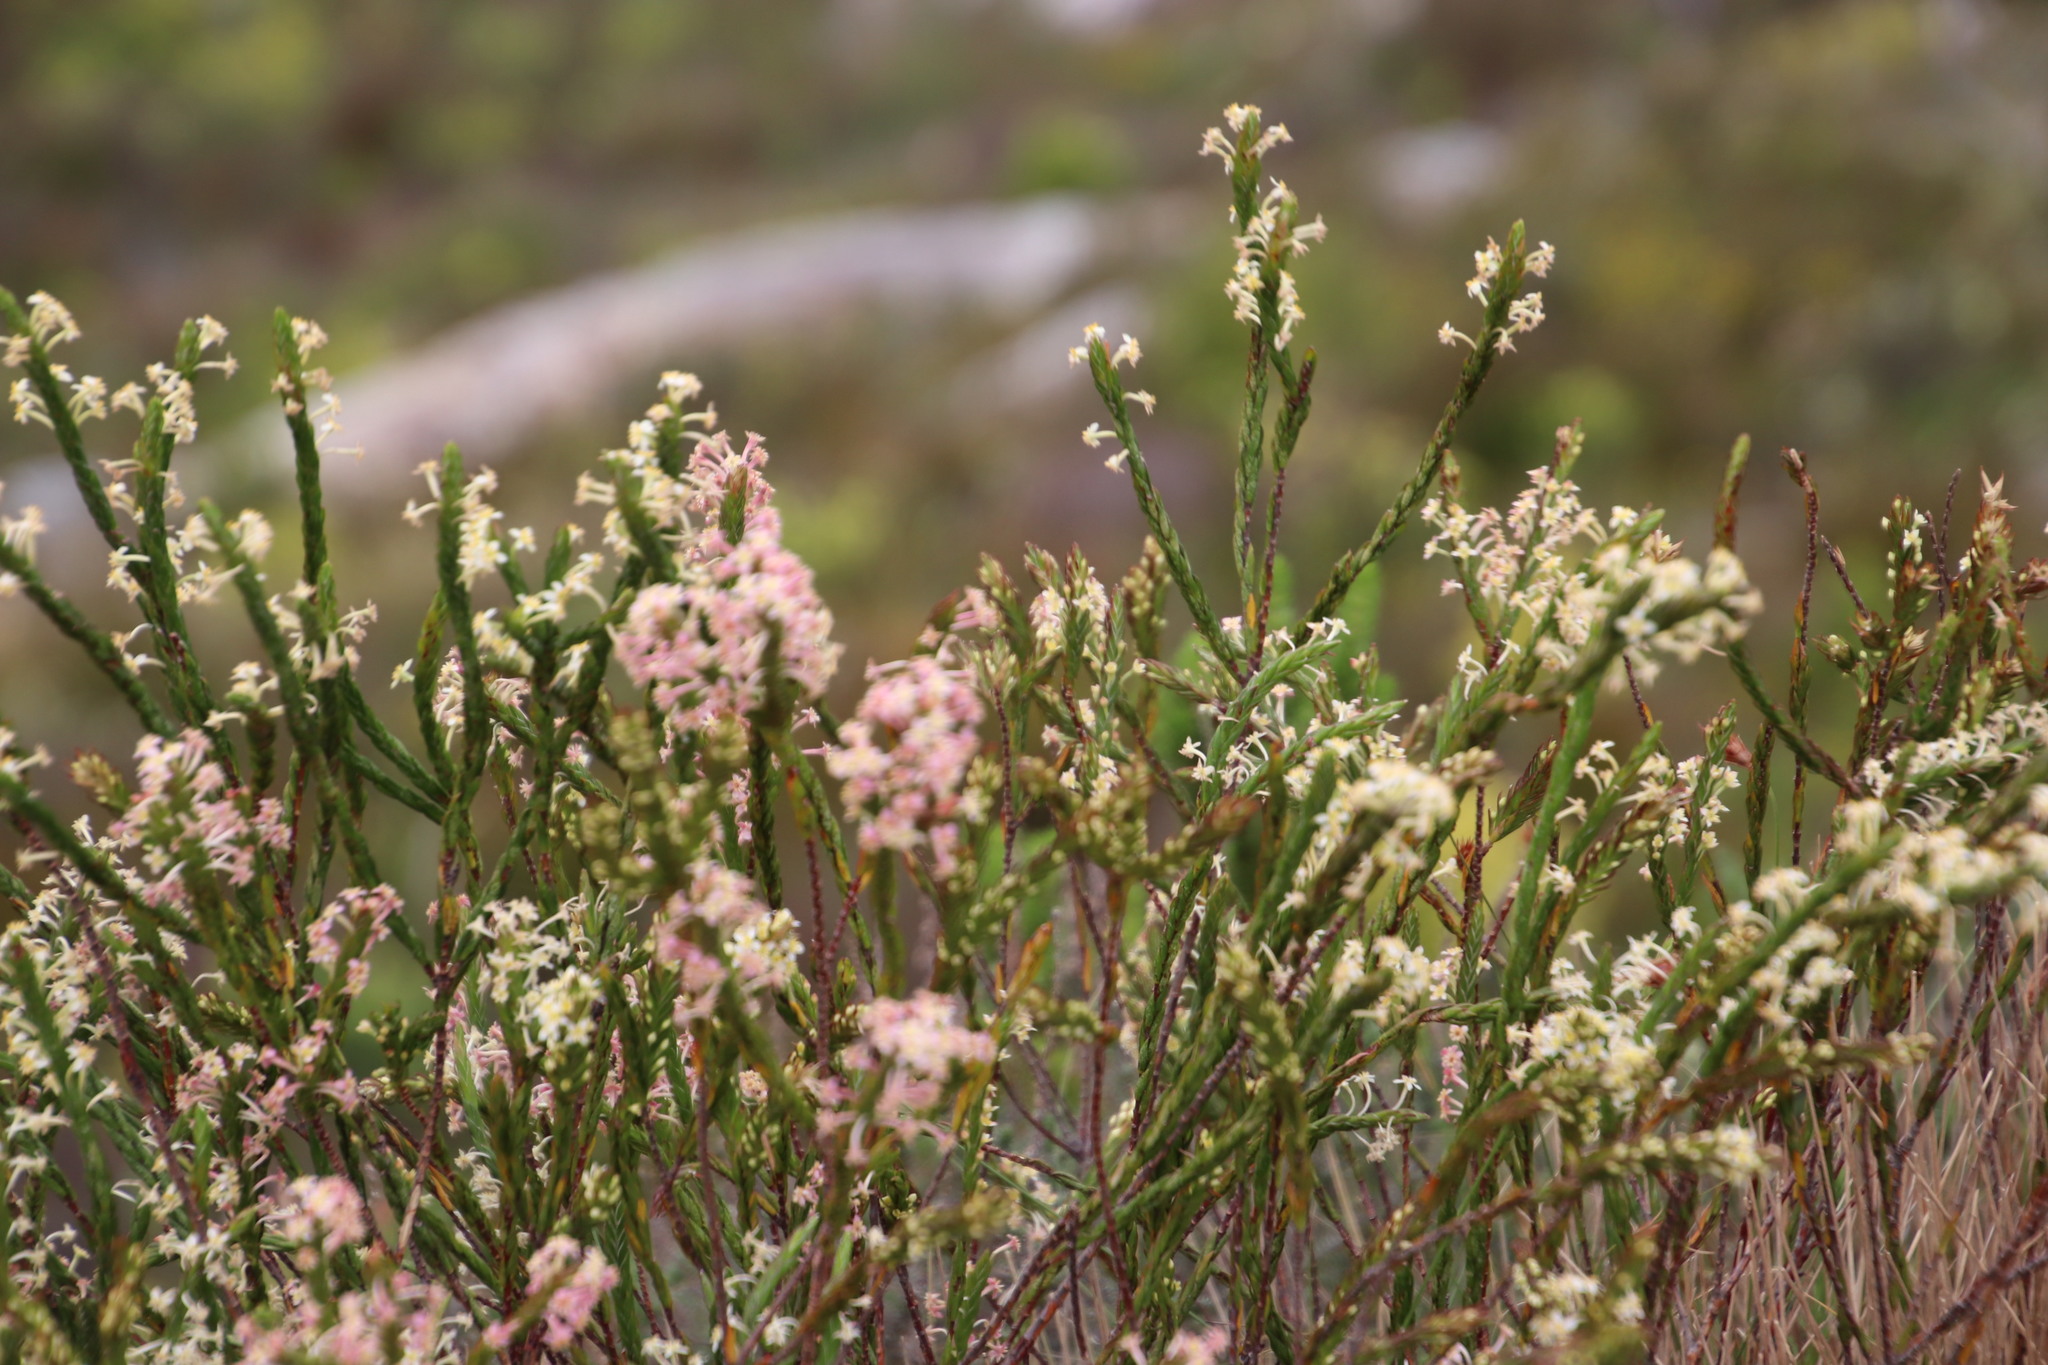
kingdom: Plantae
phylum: Tracheophyta
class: Magnoliopsida
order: Malvales
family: Thymelaeaceae
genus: Struthiola
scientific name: Struthiola ciliata
